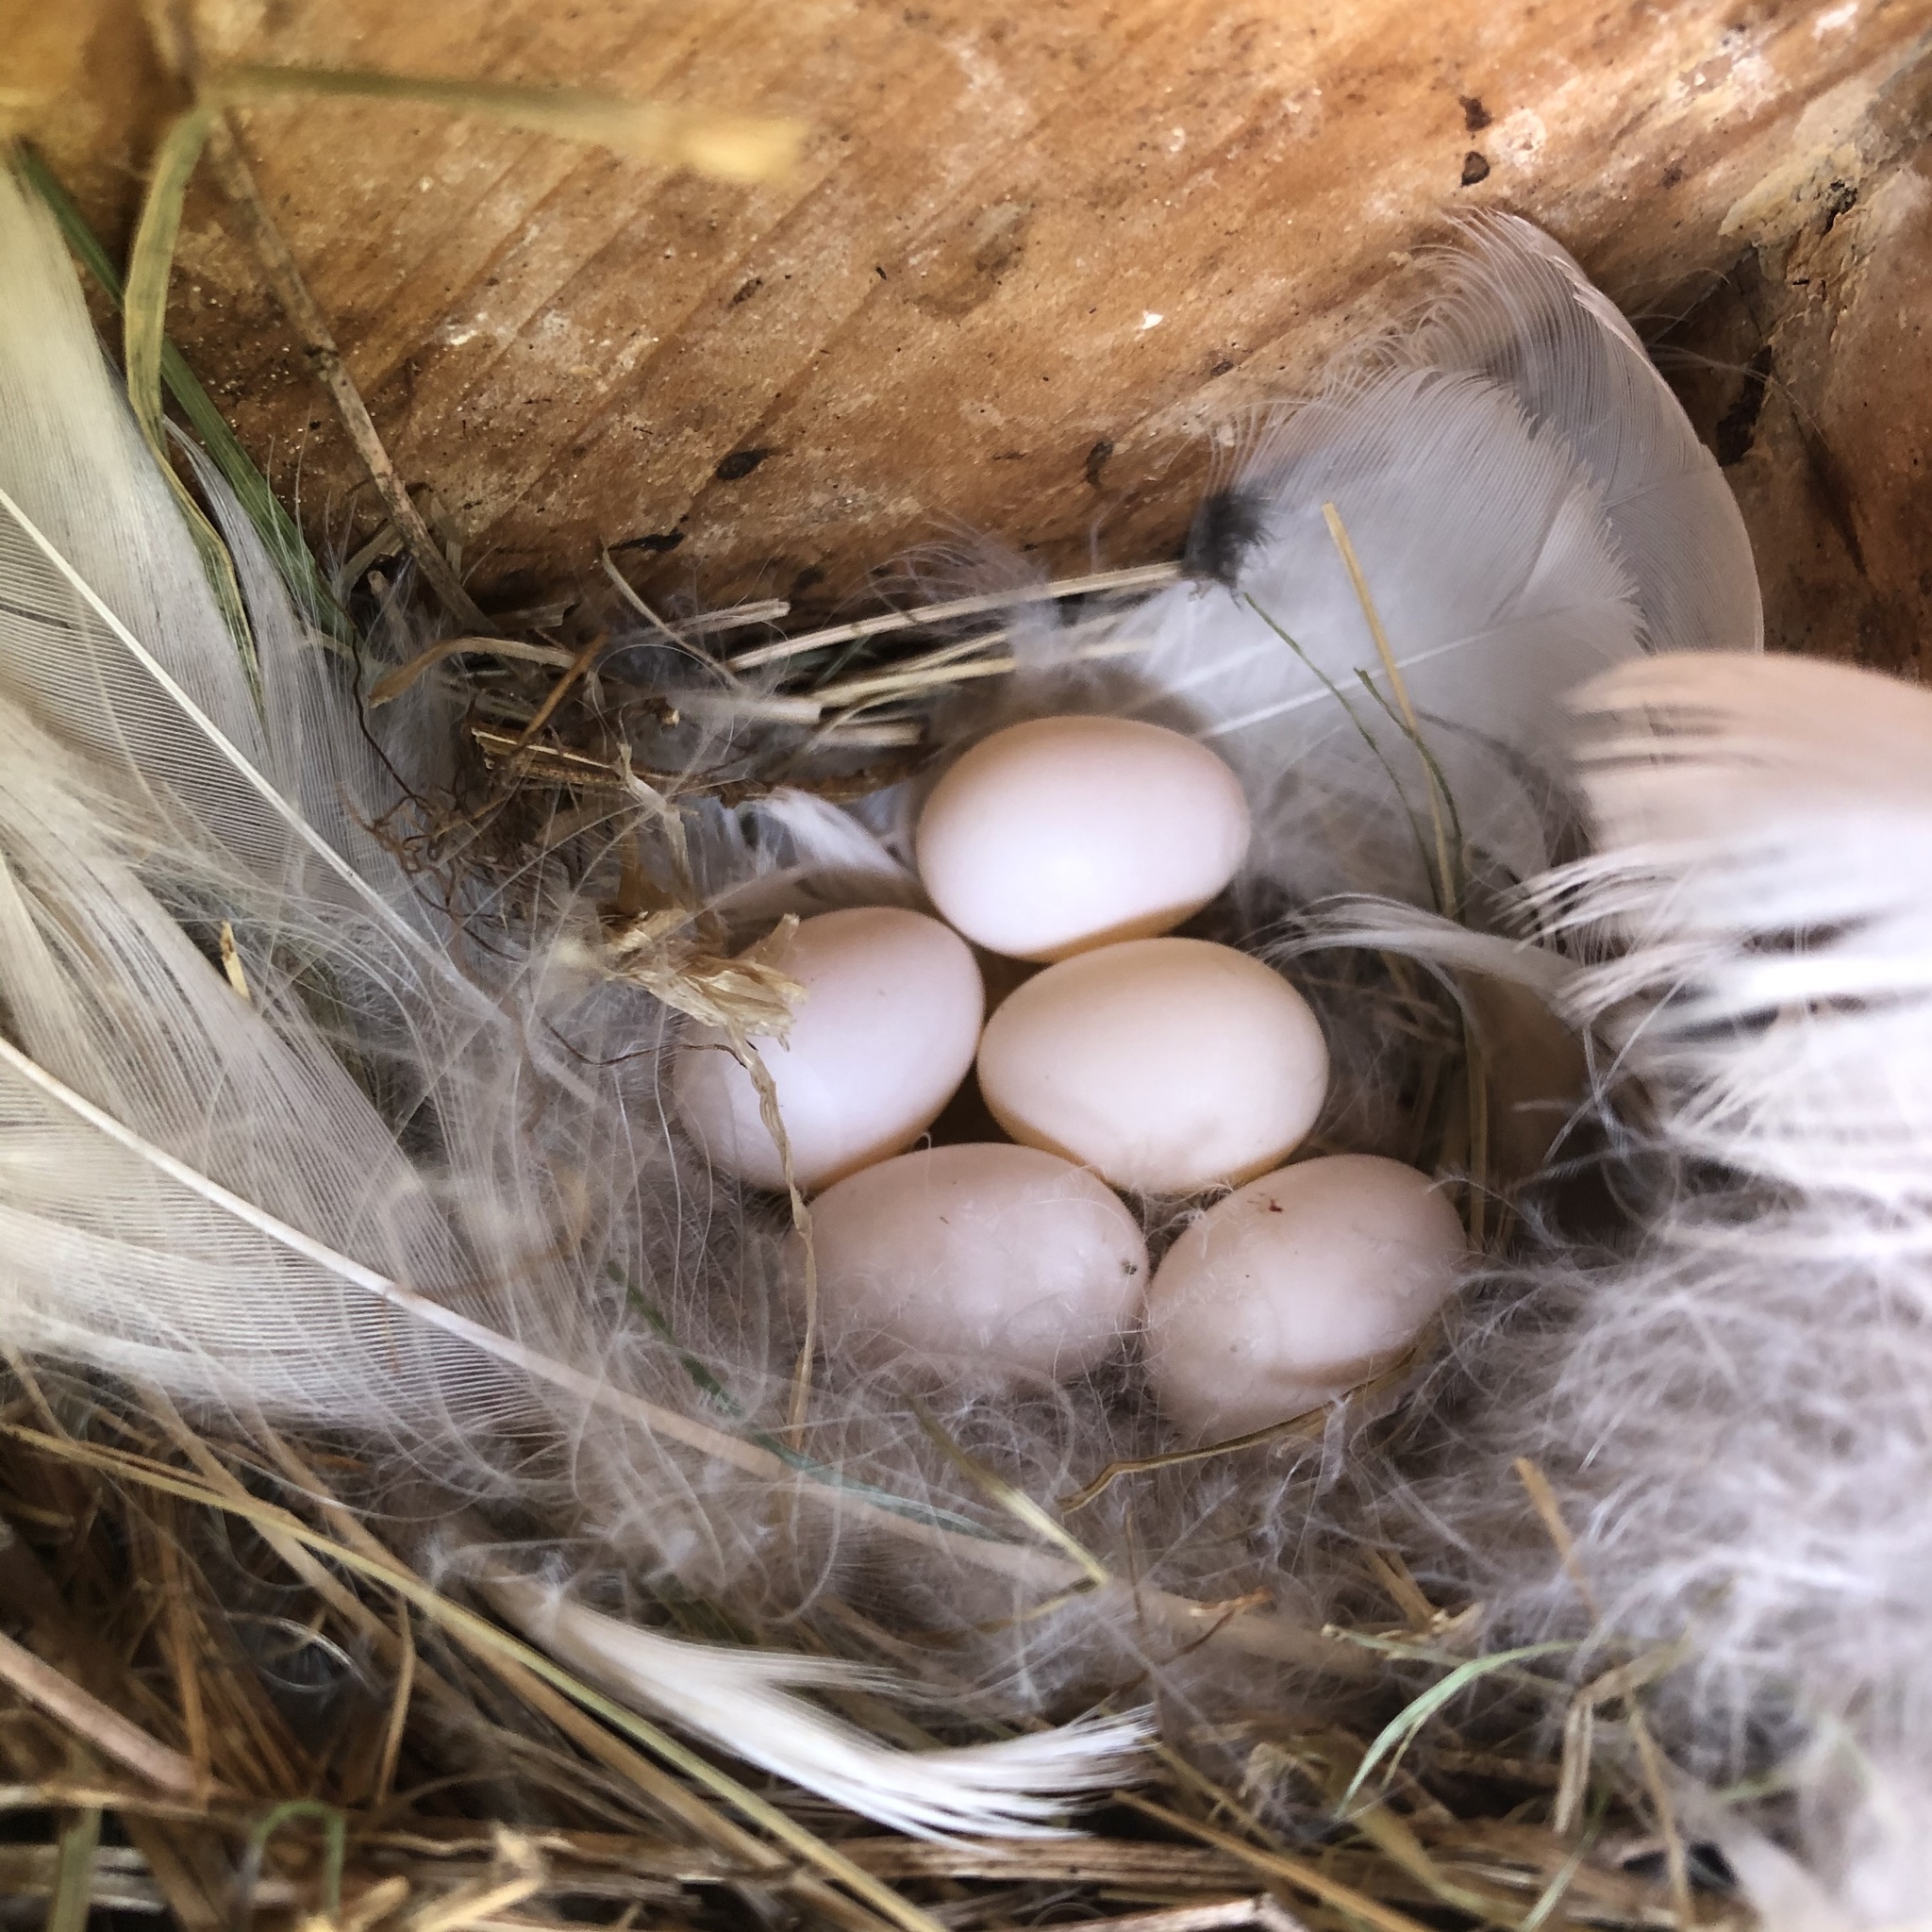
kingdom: Animalia
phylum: Chordata
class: Aves
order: Passeriformes
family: Hirundinidae
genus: Tachycineta
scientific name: Tachycineta bicolor
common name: Tree swallow
